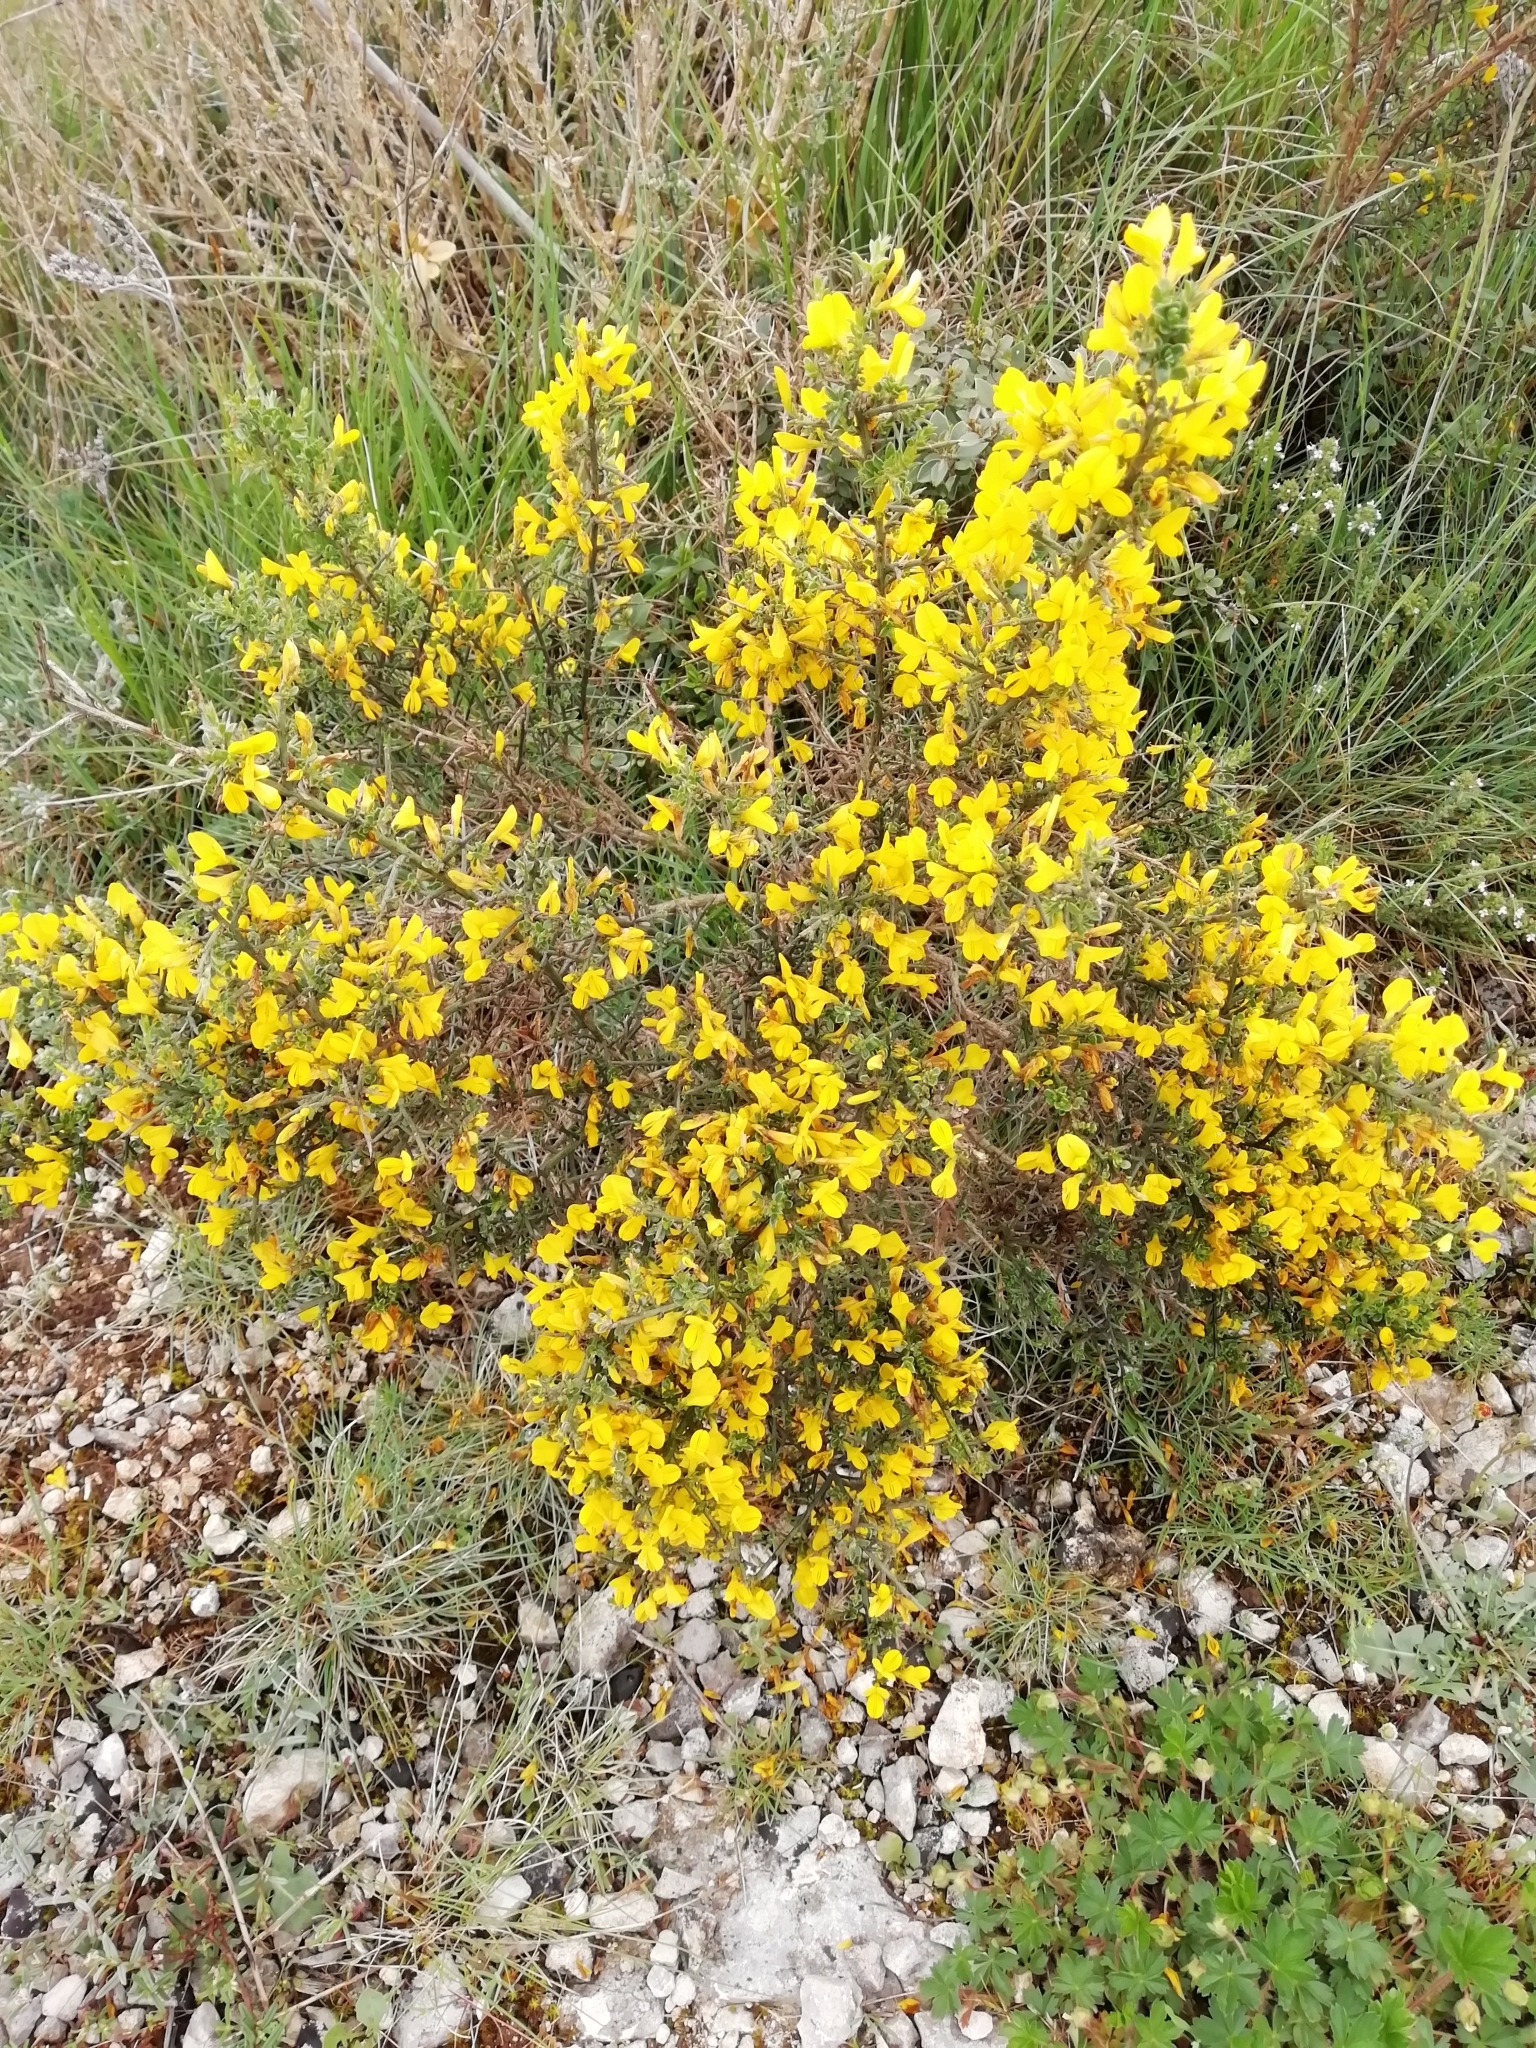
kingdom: Plantae
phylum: Tracheophyta
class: Magnoliopsida
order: Fabales
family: Fabaceae
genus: Genista
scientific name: Genista scorpius
